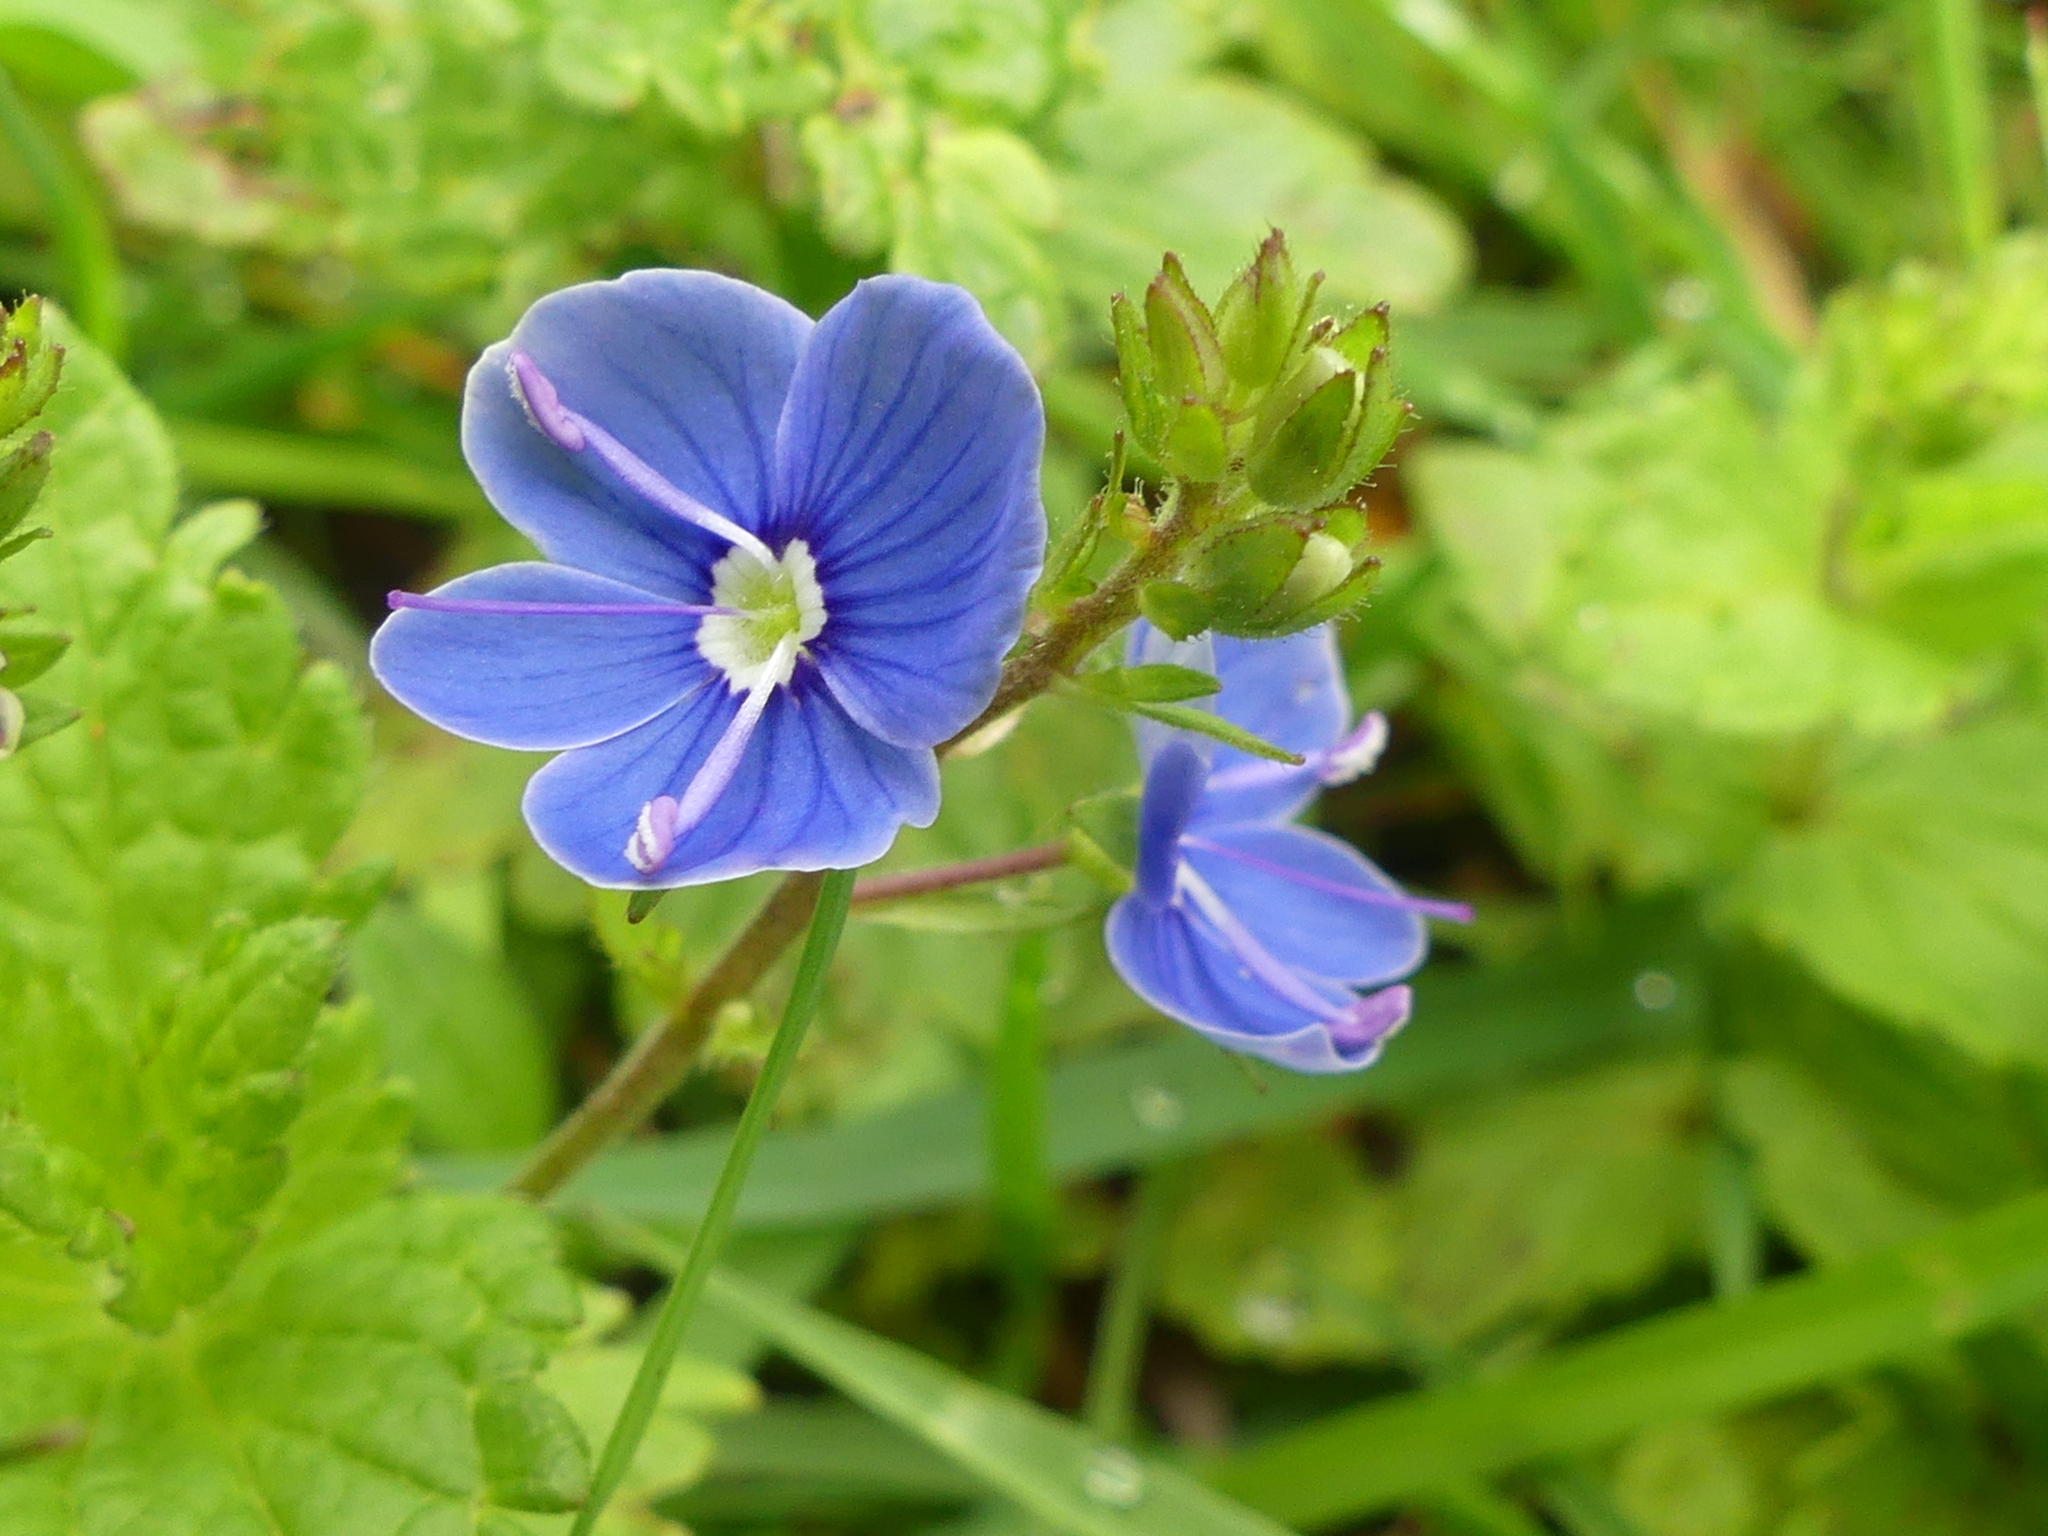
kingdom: Plantae
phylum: Tracheophyta
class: Magnoliopsida
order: Lamiales
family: Plantaginaceae
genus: Veronica
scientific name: Veronica chamaedrys
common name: Germander speedwell
